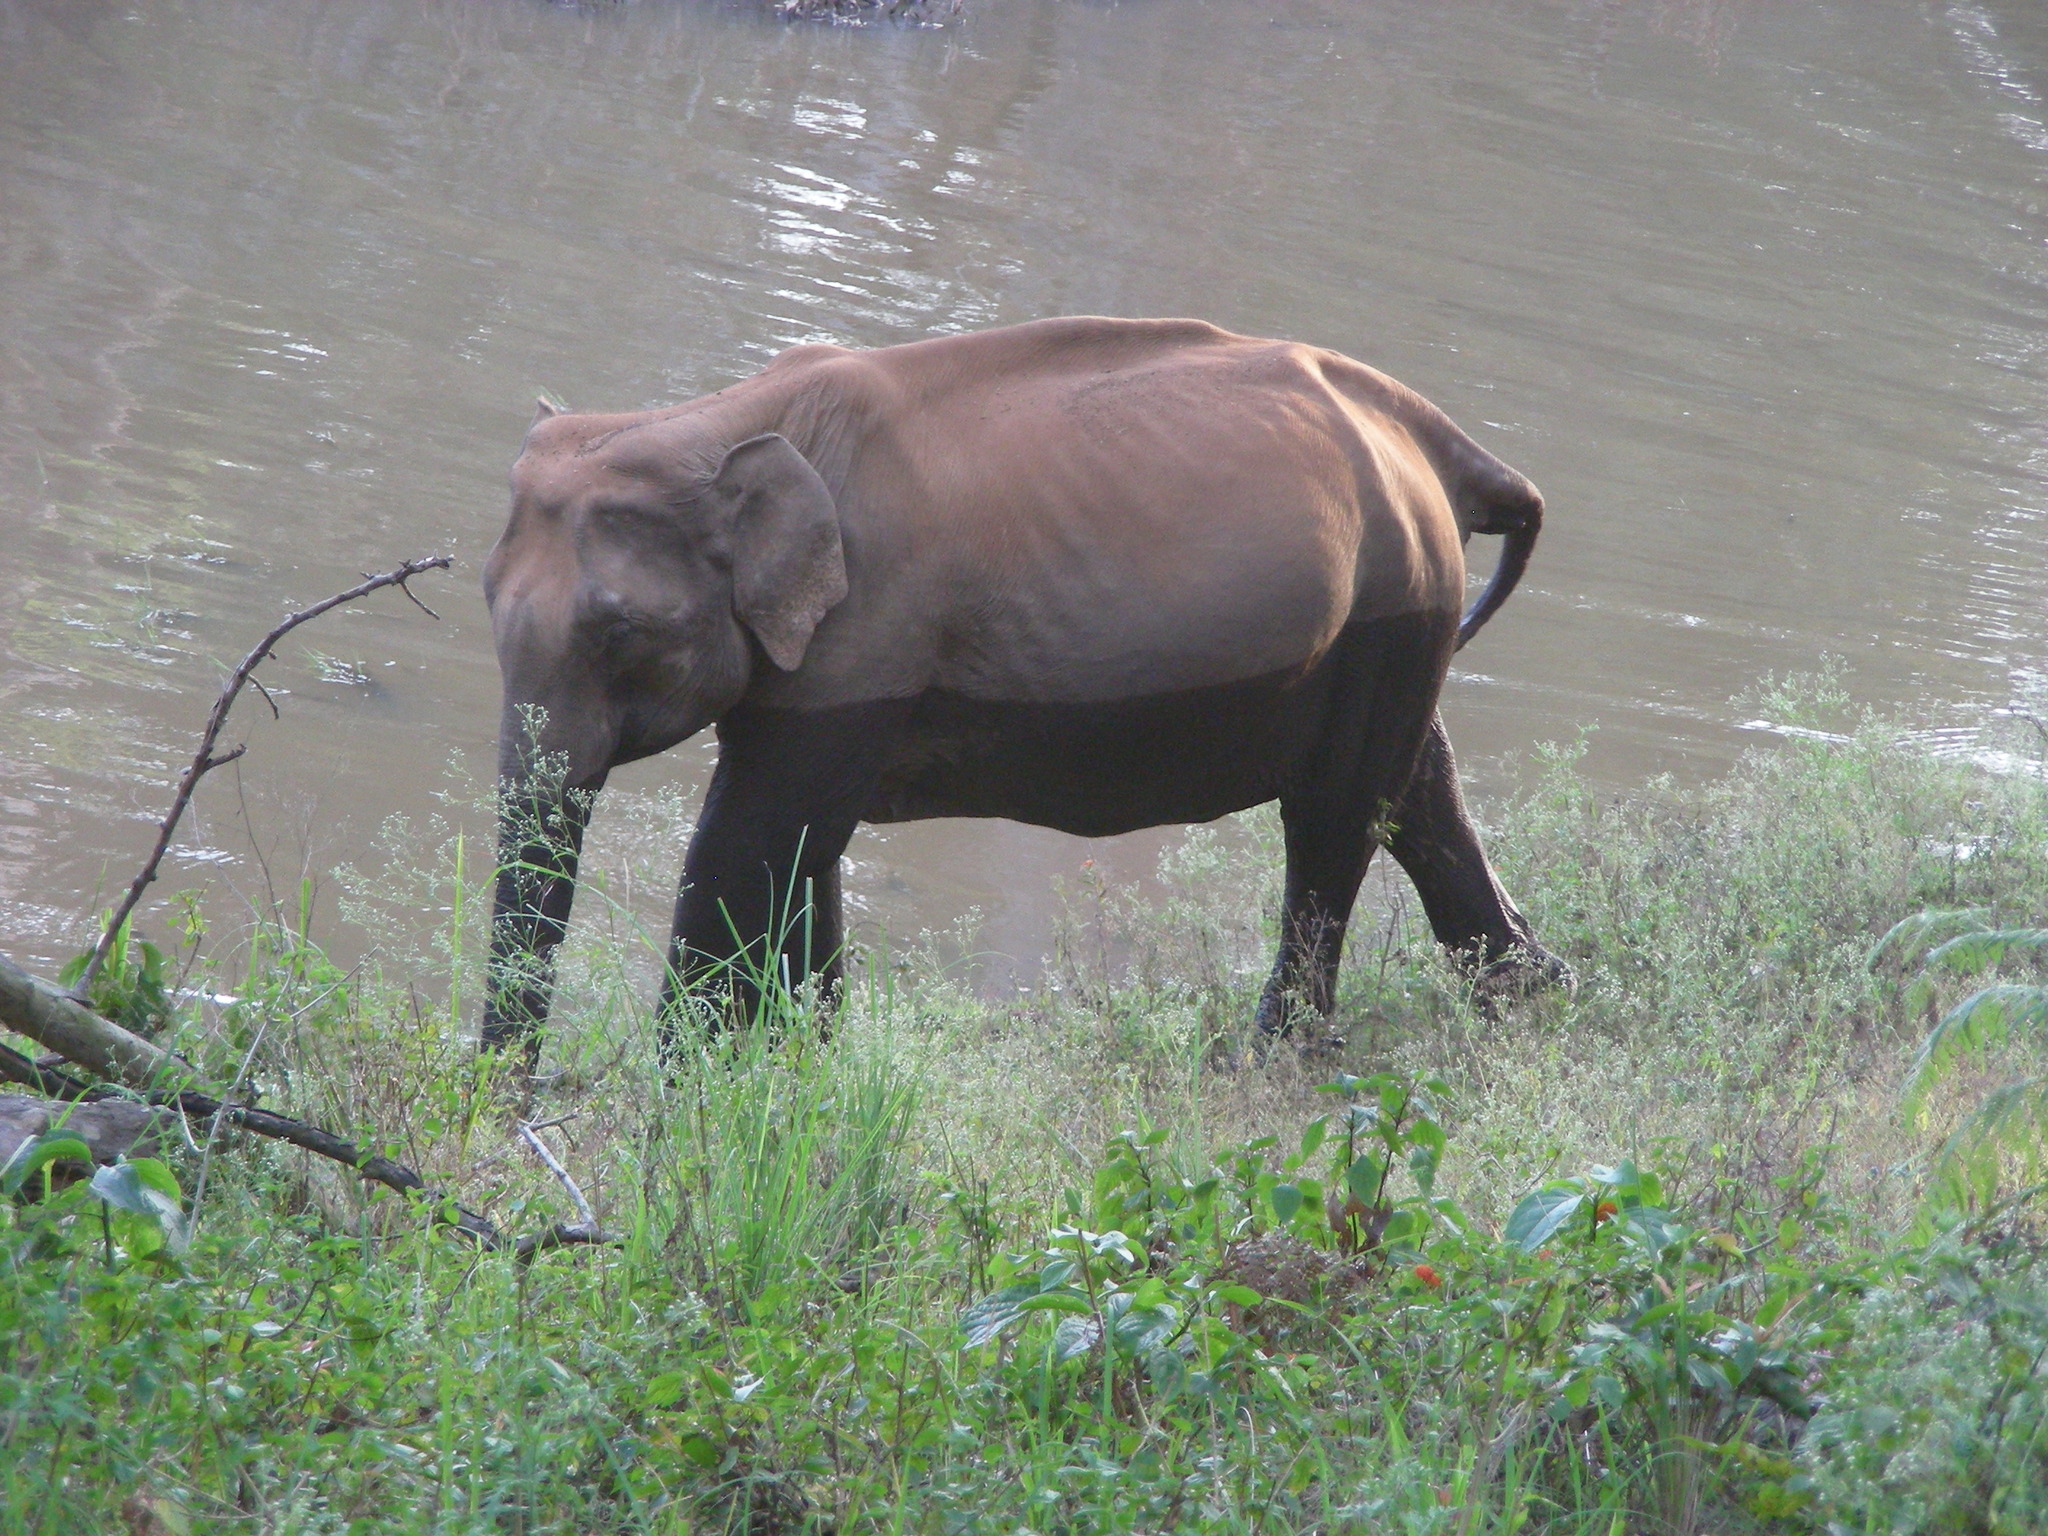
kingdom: Animalia
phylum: Chordata
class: Mammalia
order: Proboscidea
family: Elephantidae
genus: Elephas
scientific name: Elephas maximus
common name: Asian elephant
